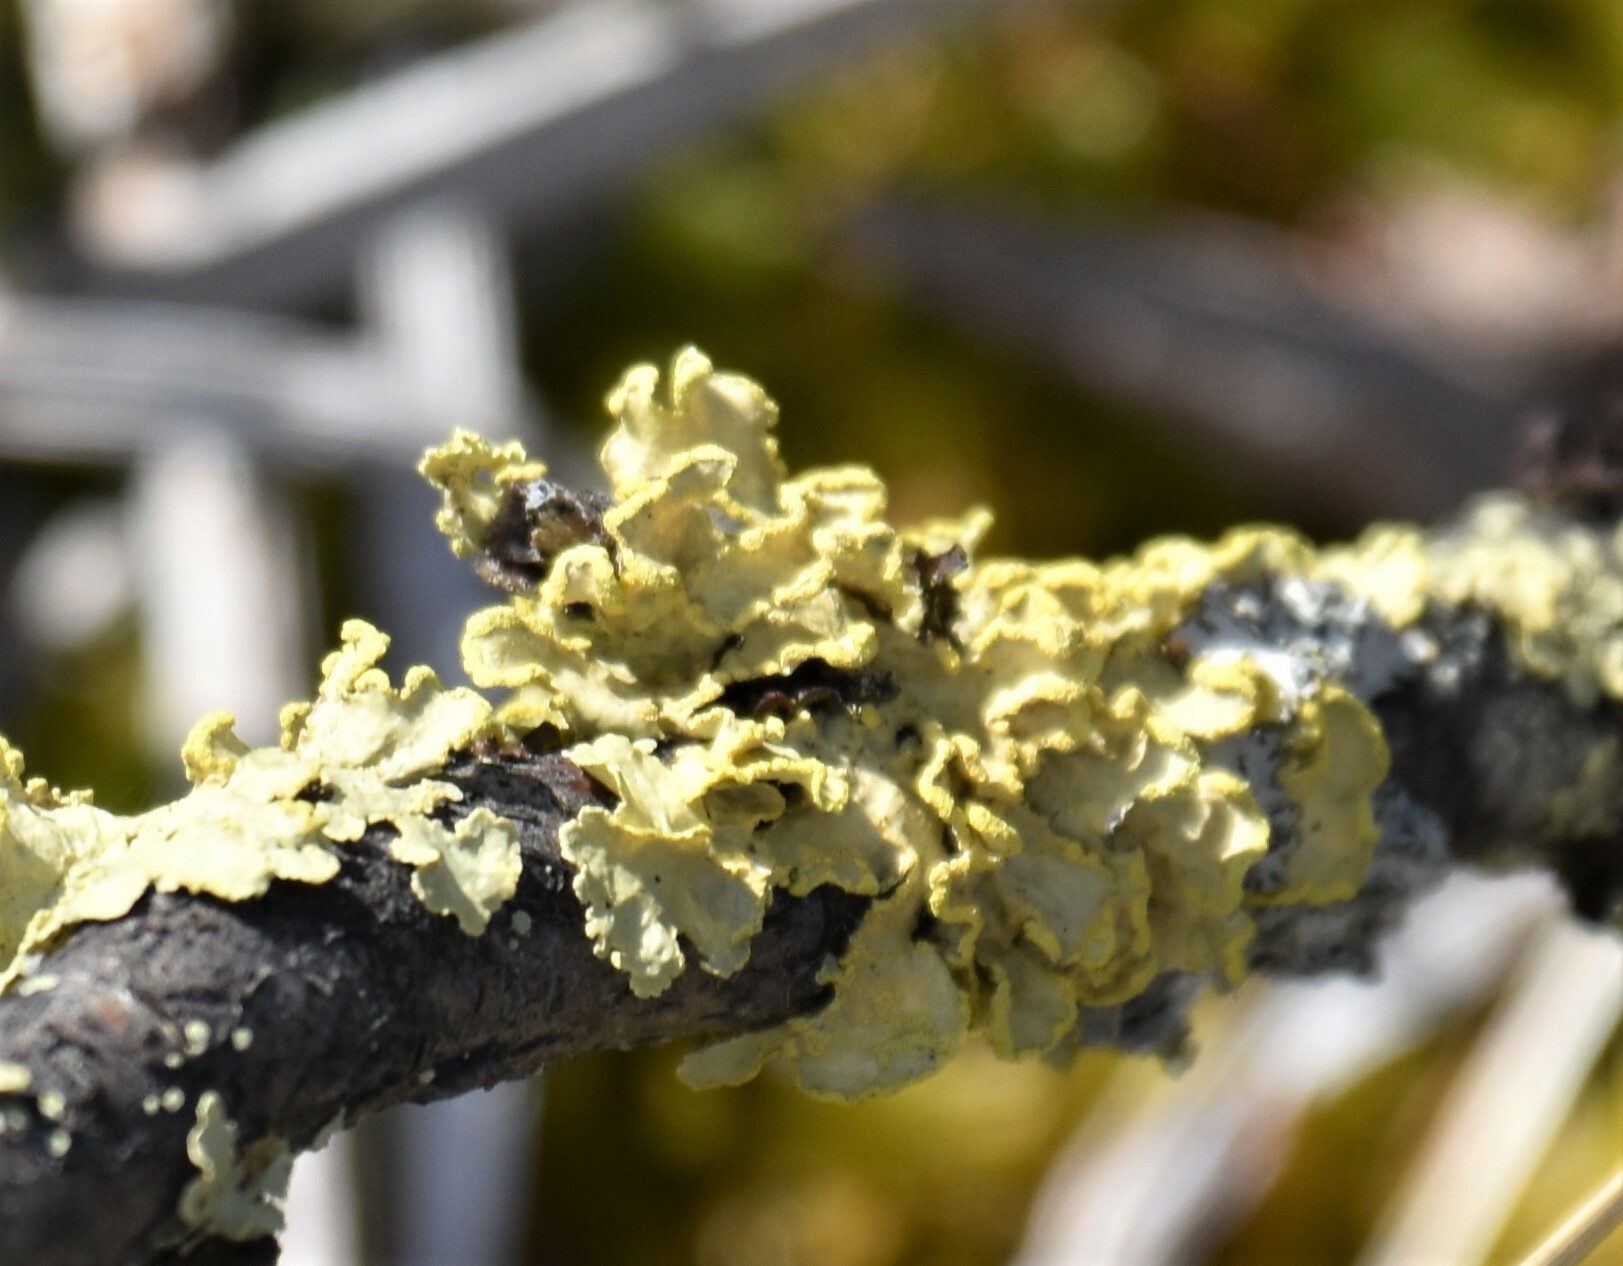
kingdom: Fungi
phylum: Ascomycota
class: Lecanoromycetes
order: Lecanorales
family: Parmeliaceae
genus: Vulpicida
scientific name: Vulpicida pinastri
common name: Powdered sunshine lichen
